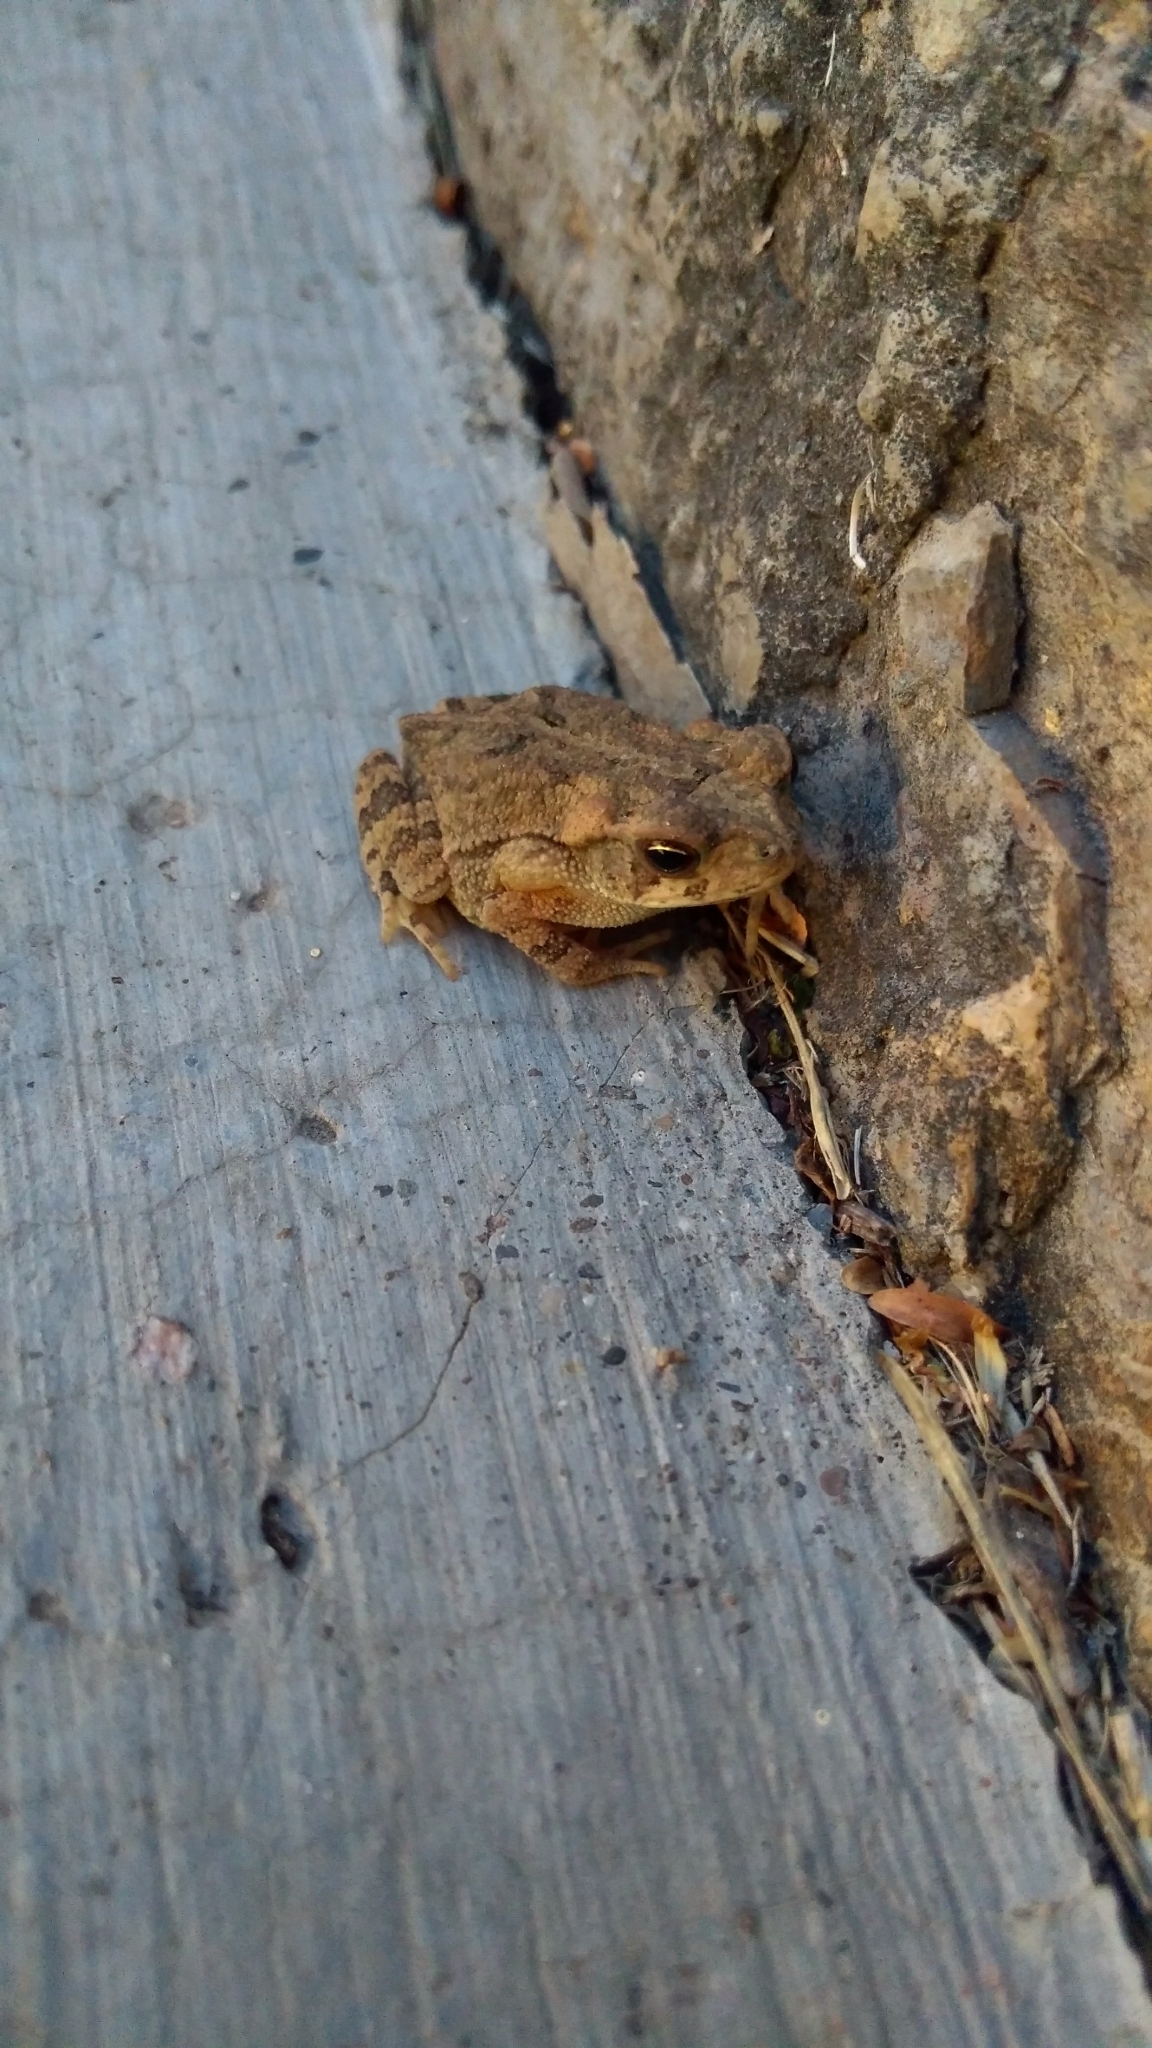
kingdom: Animalia
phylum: Chordata
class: Amphibia
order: Anura
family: Bufonidae
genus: Incilius
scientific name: Incilius nebulifer
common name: Gulf coast toad
